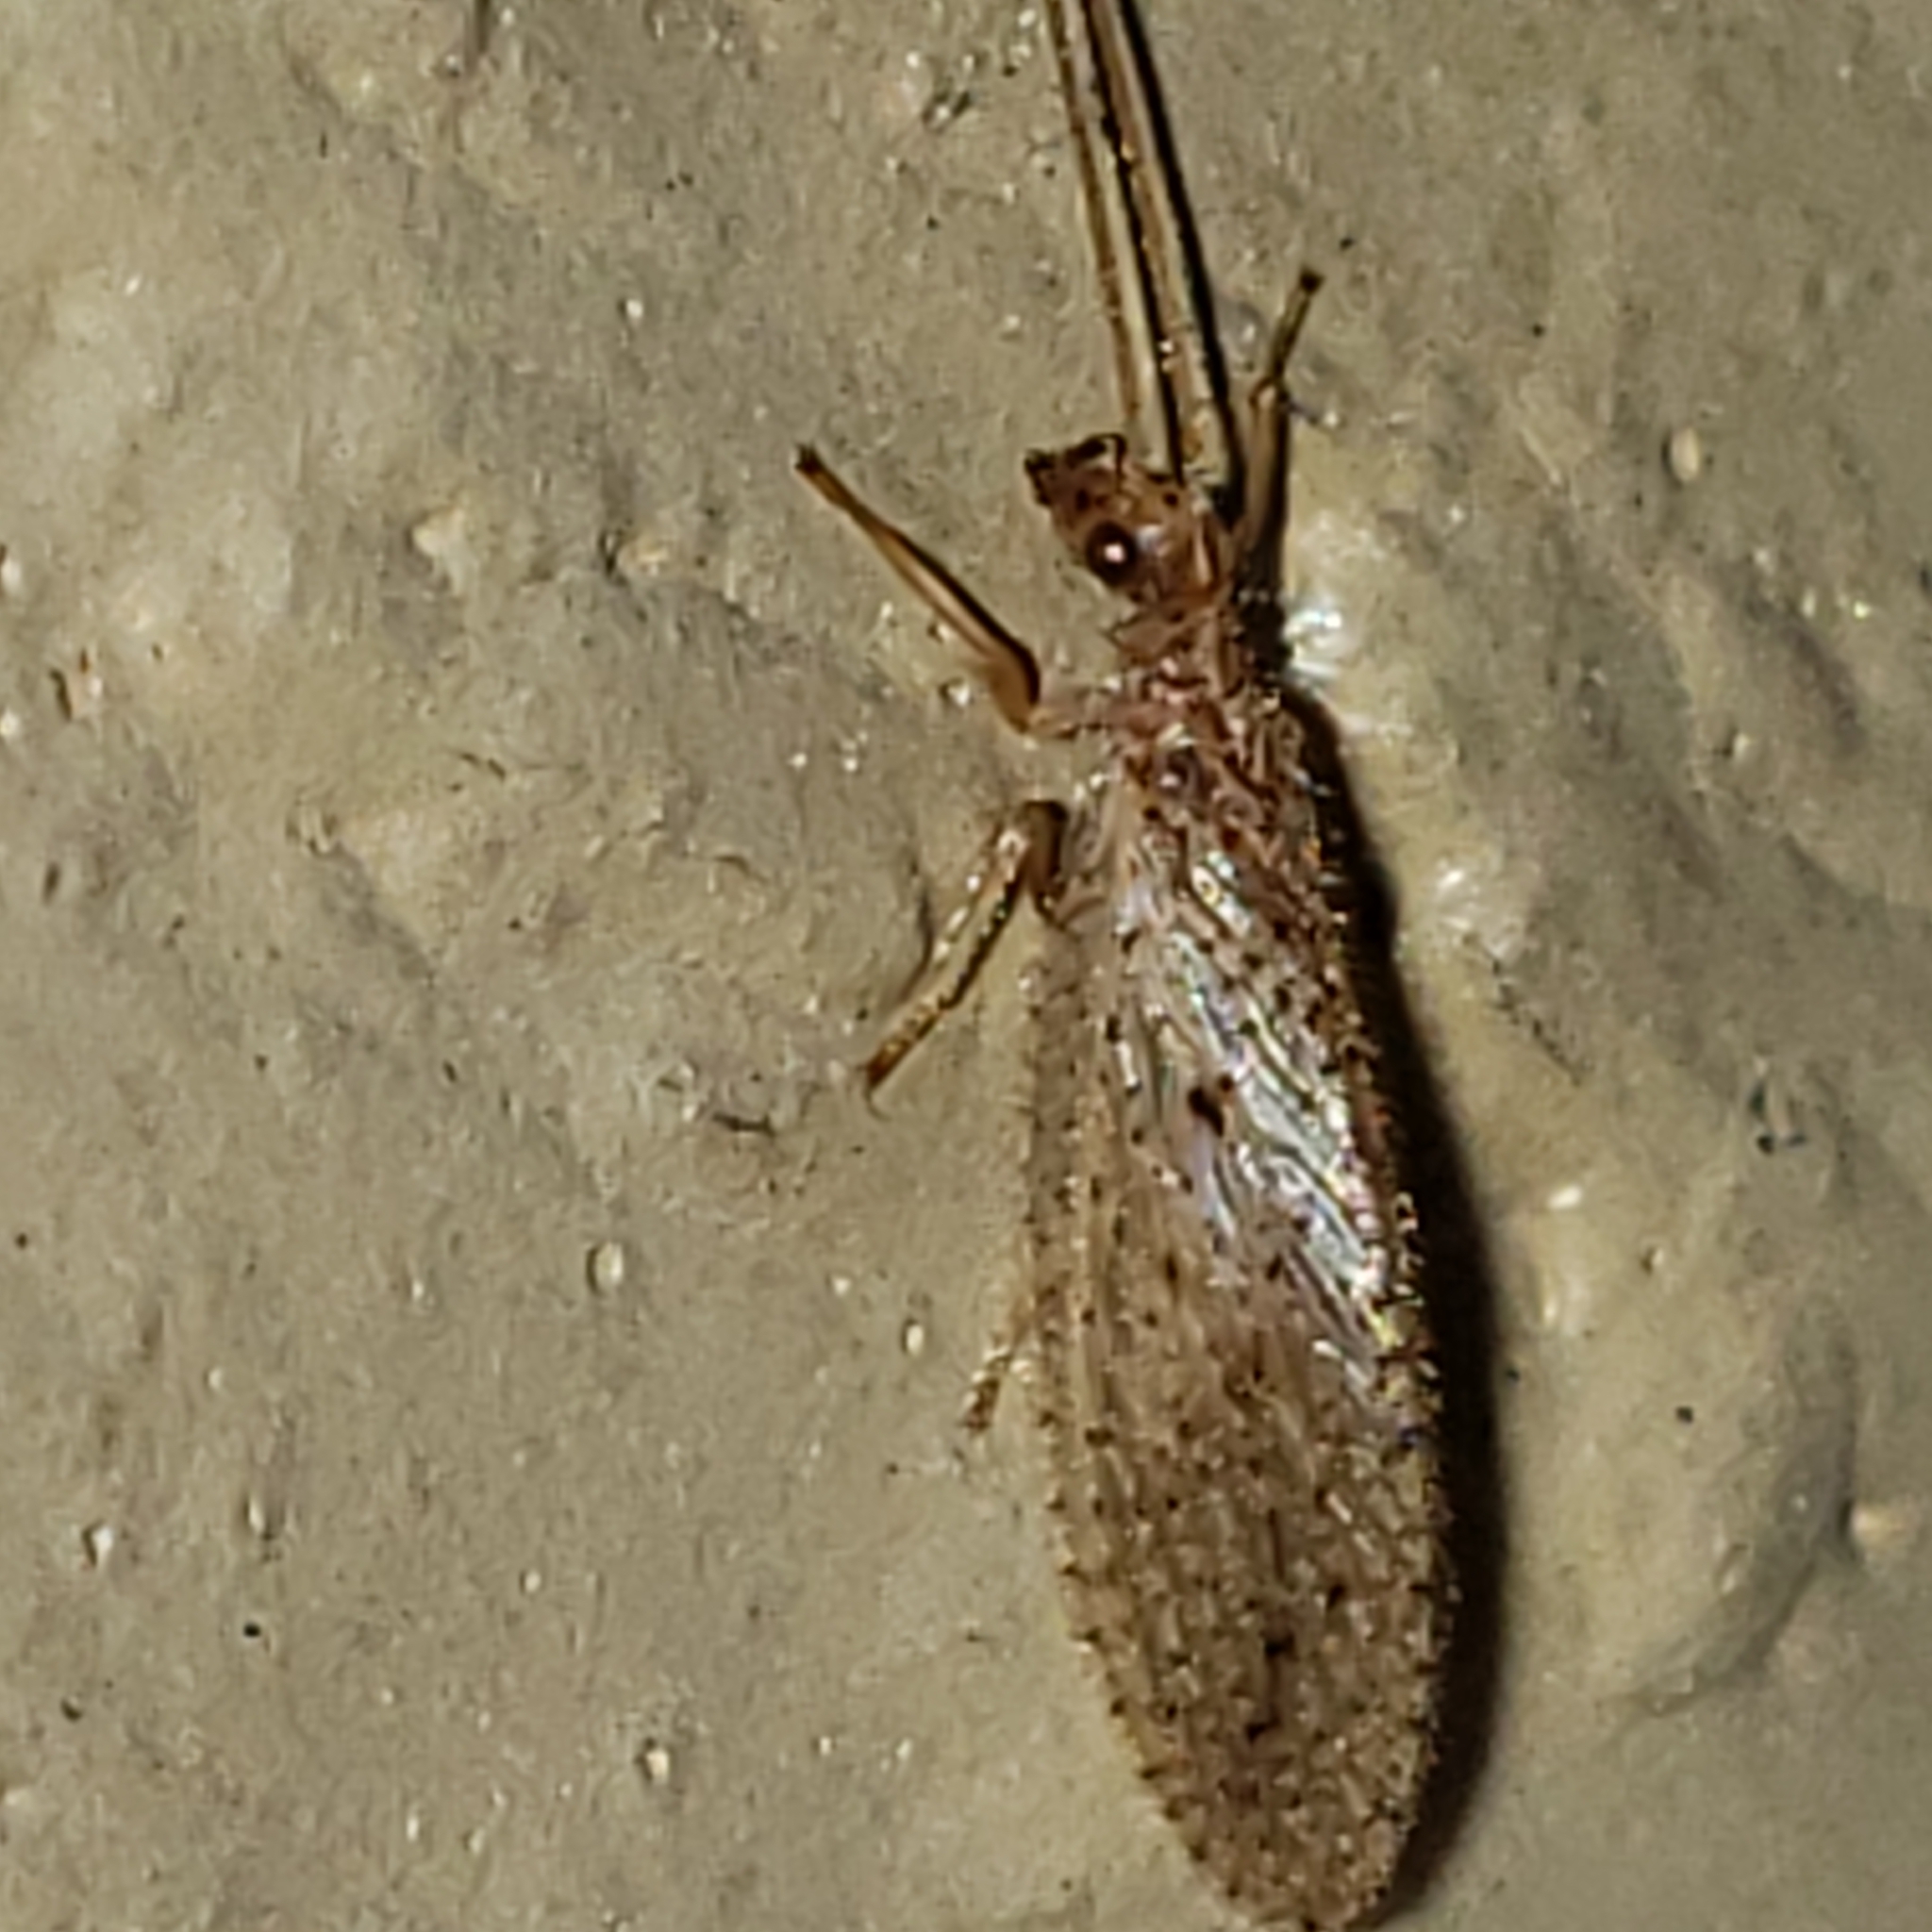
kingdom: Animalia
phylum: Arthropoda
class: Insecta
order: Neuroptera
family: Hemerobiidae
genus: Micromus
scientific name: Micromus subanticus
